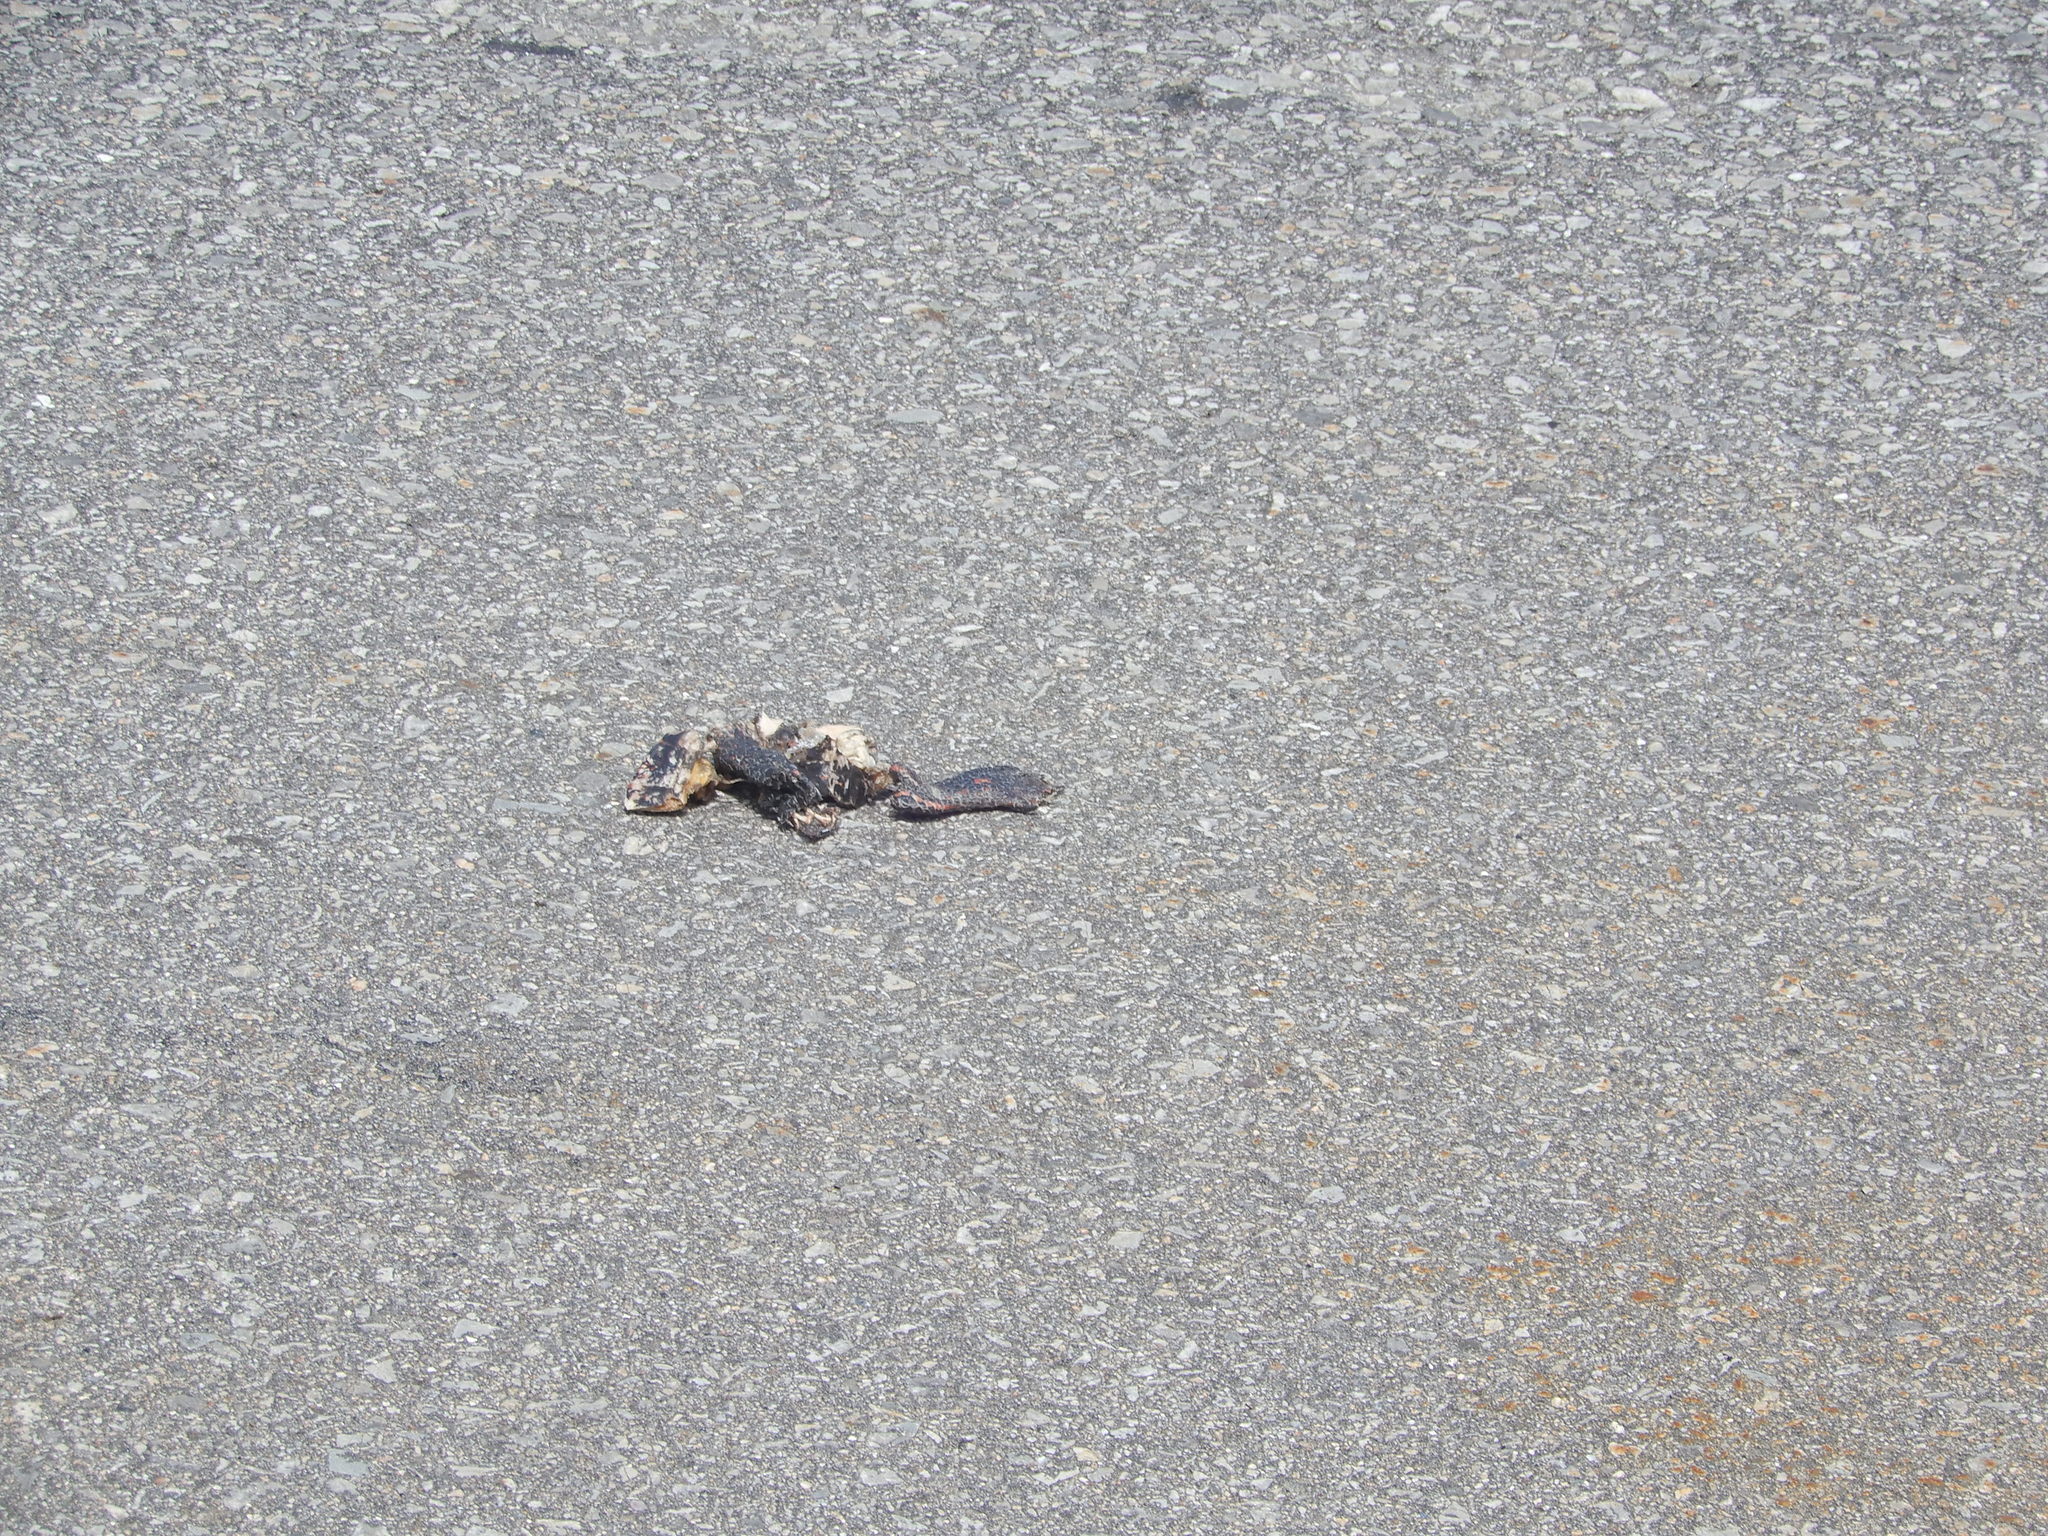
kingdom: Animalia
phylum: Chordata
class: Testudines
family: Emydidae
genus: Chrysemys
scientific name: Chrysemys picta
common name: Painted turtle
